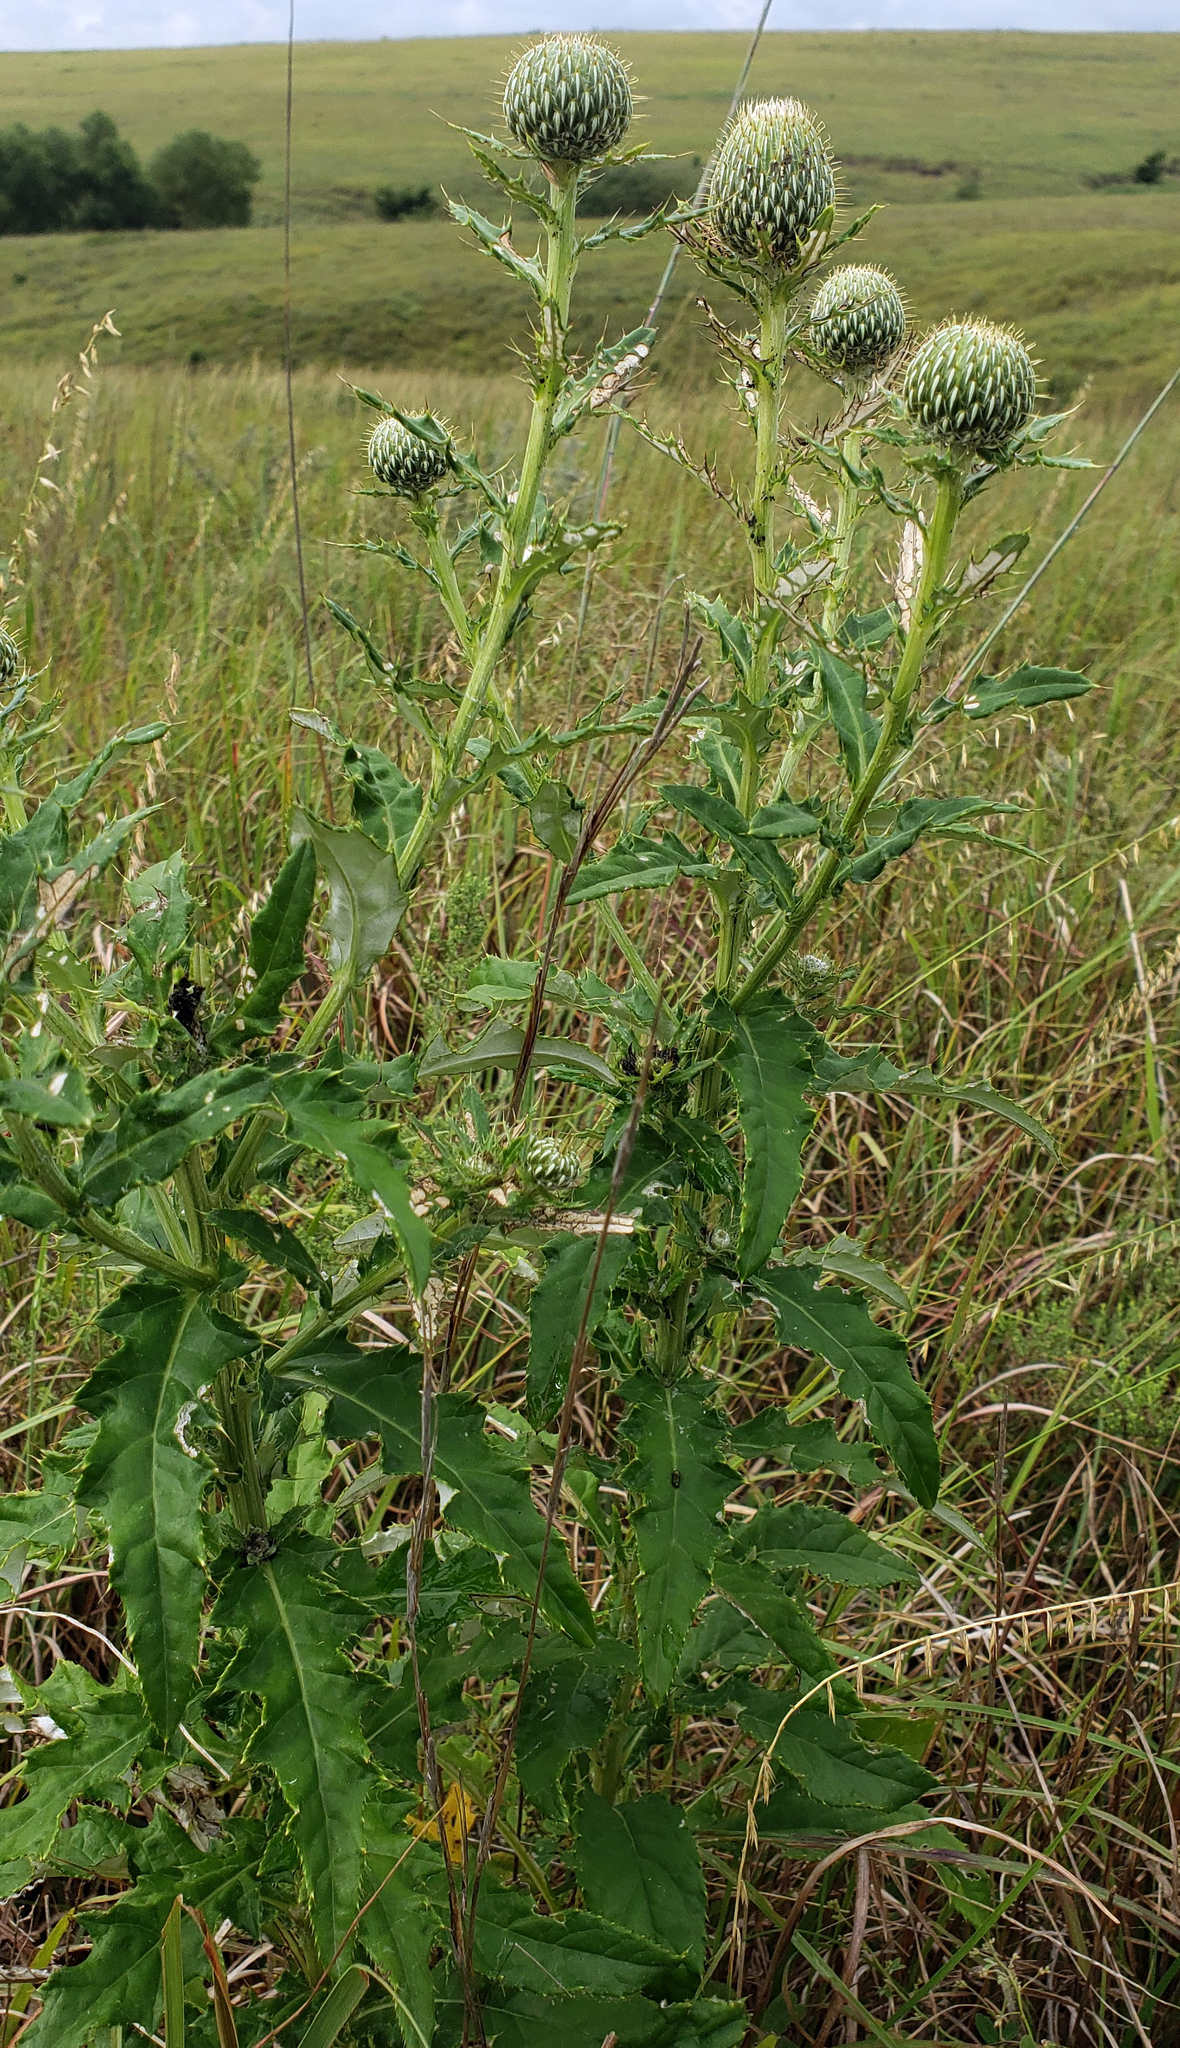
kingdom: Plantae
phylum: Tracheophyta
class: Magnoliopsida
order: Asterales
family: Asteraceae
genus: Cirsium
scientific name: Cirsium altissimum
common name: Roadside thistle
